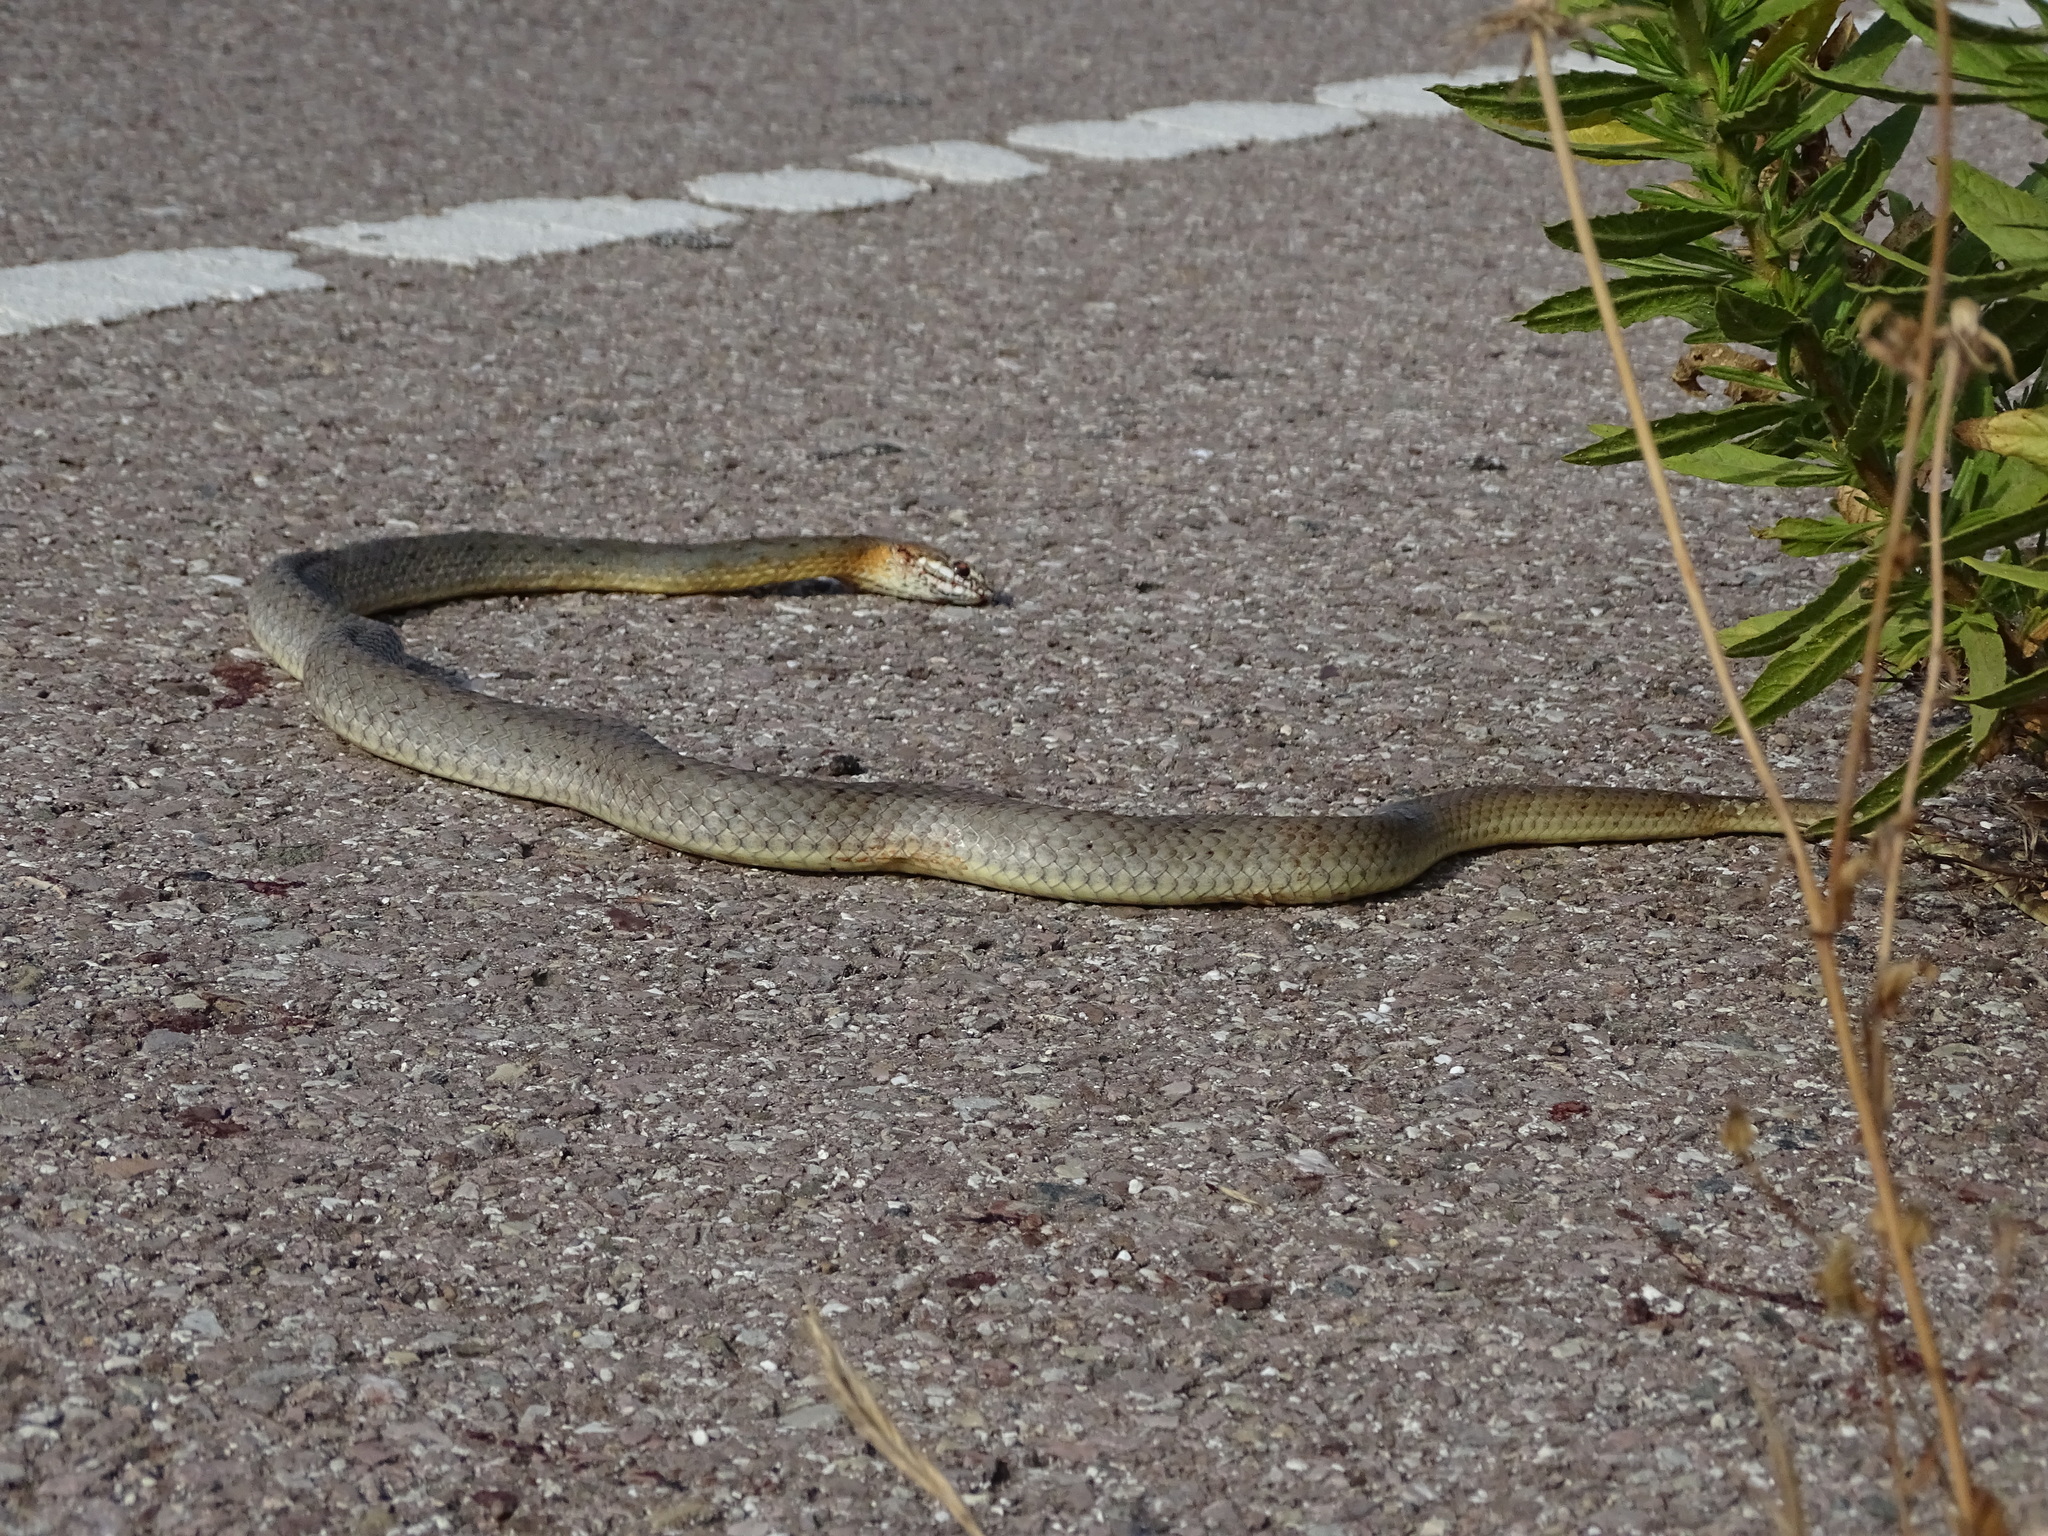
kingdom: Animalia
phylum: Chordata
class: Squamata
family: Psammophiidae
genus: Malpolon
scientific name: Malpolon insignitus
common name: Eastern montpellier snake
